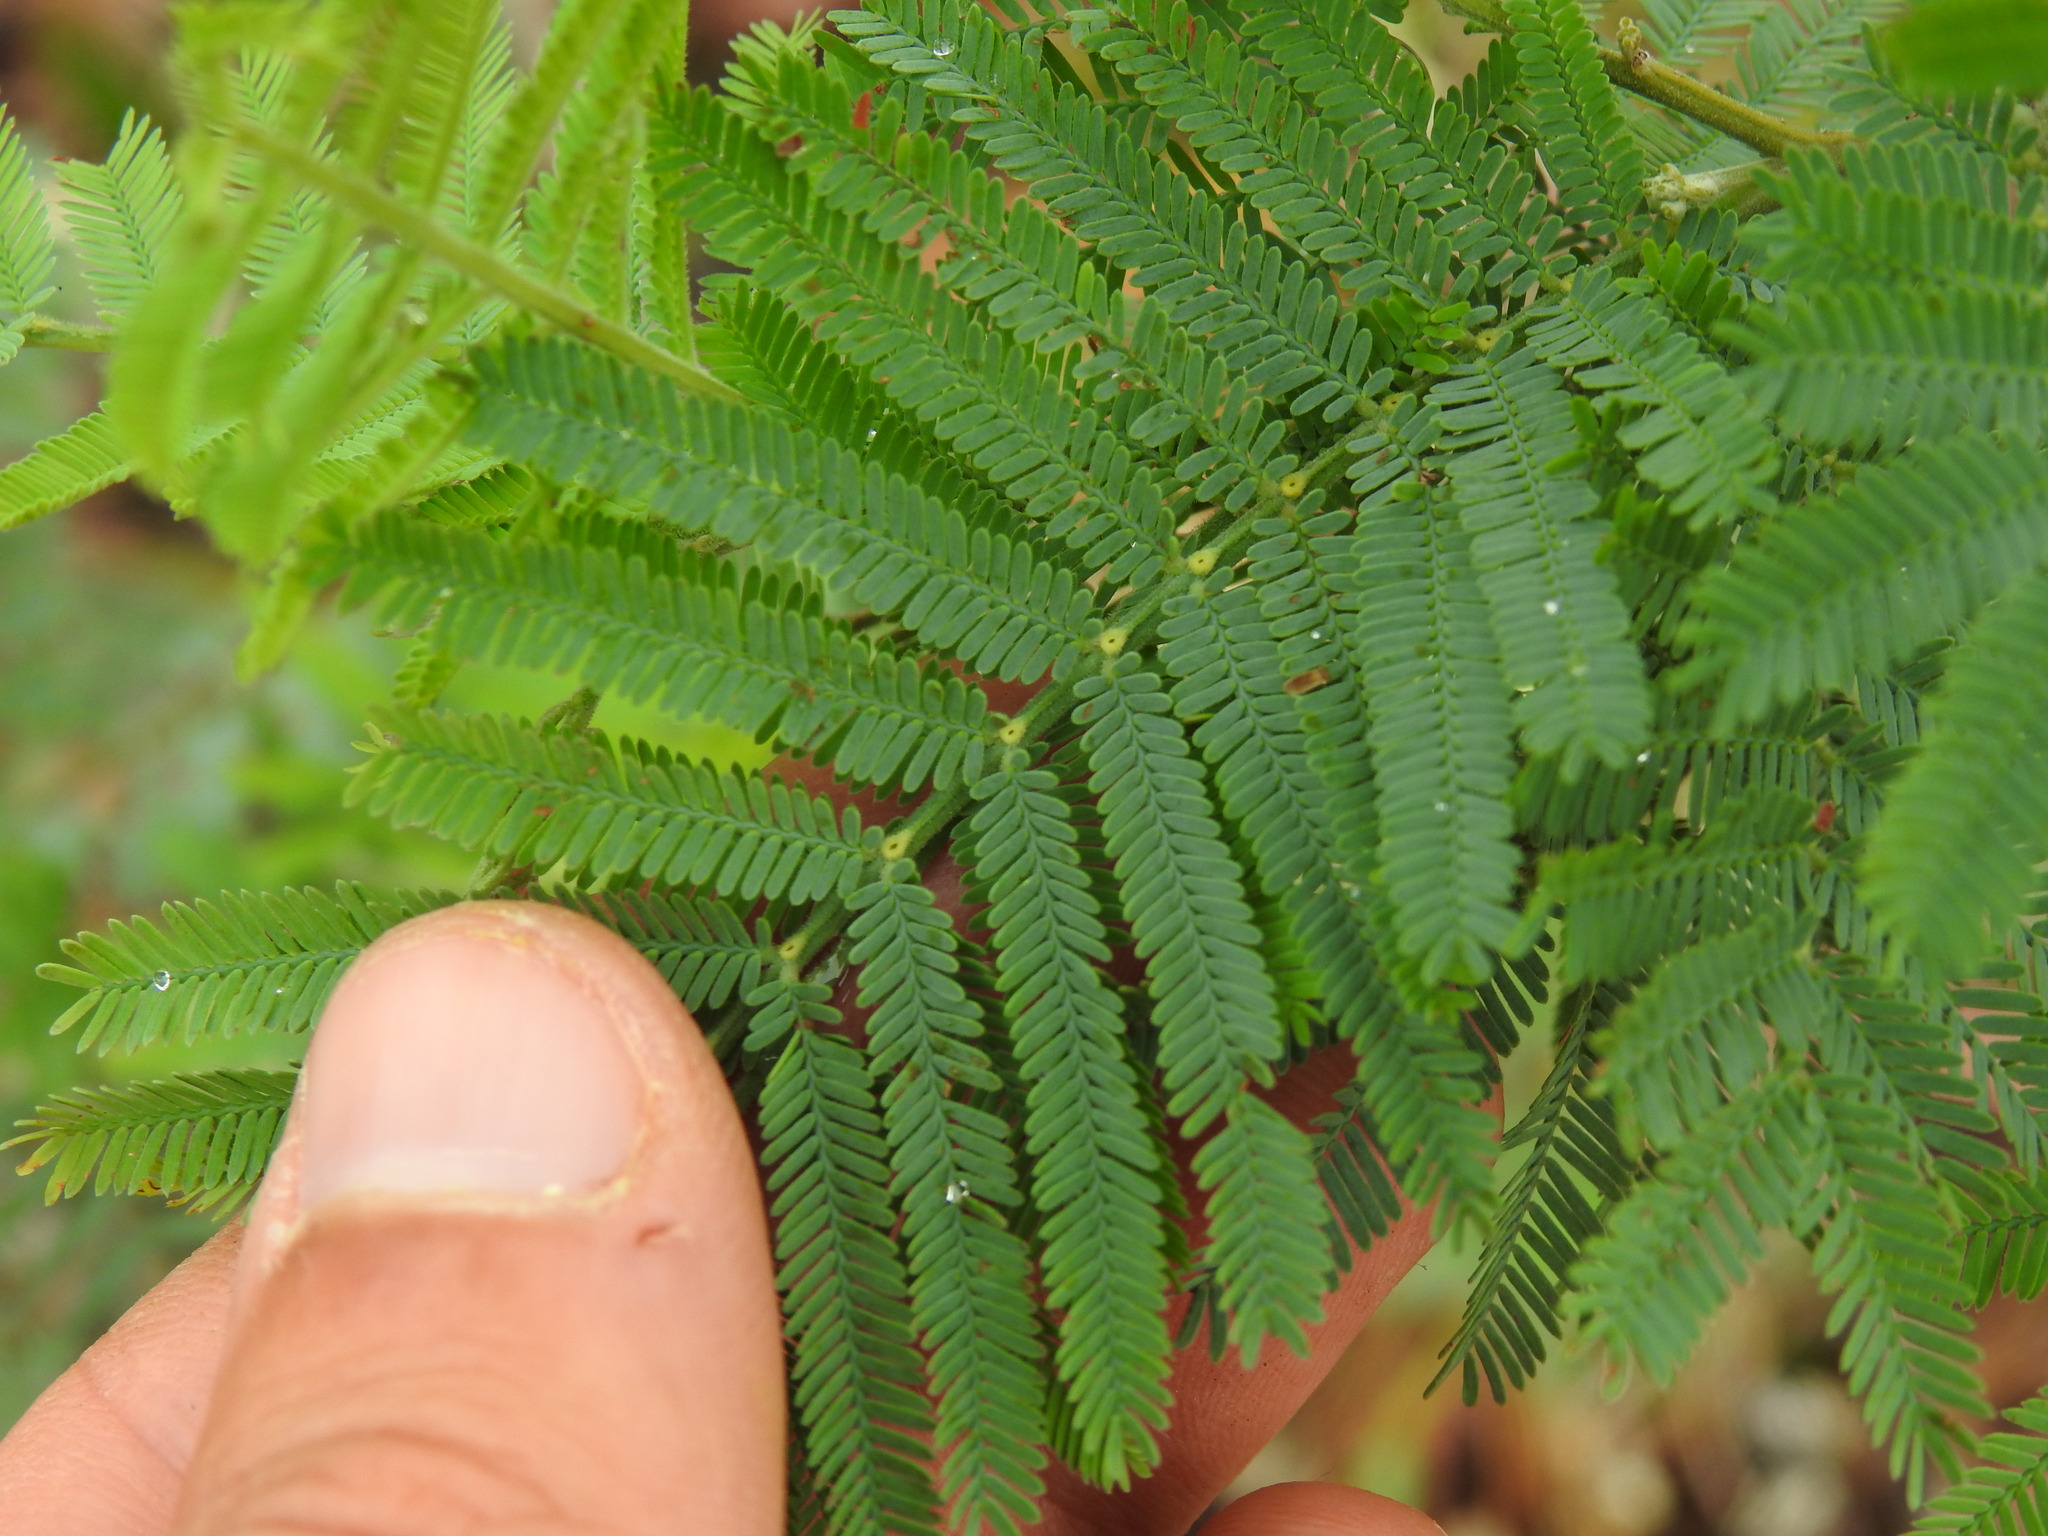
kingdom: Plantae
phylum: Tracheophyta
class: Magnoliopsida
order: Fabales
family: Fabaceae
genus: Acacia
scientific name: Acacia dealbata
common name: Silver wattle
